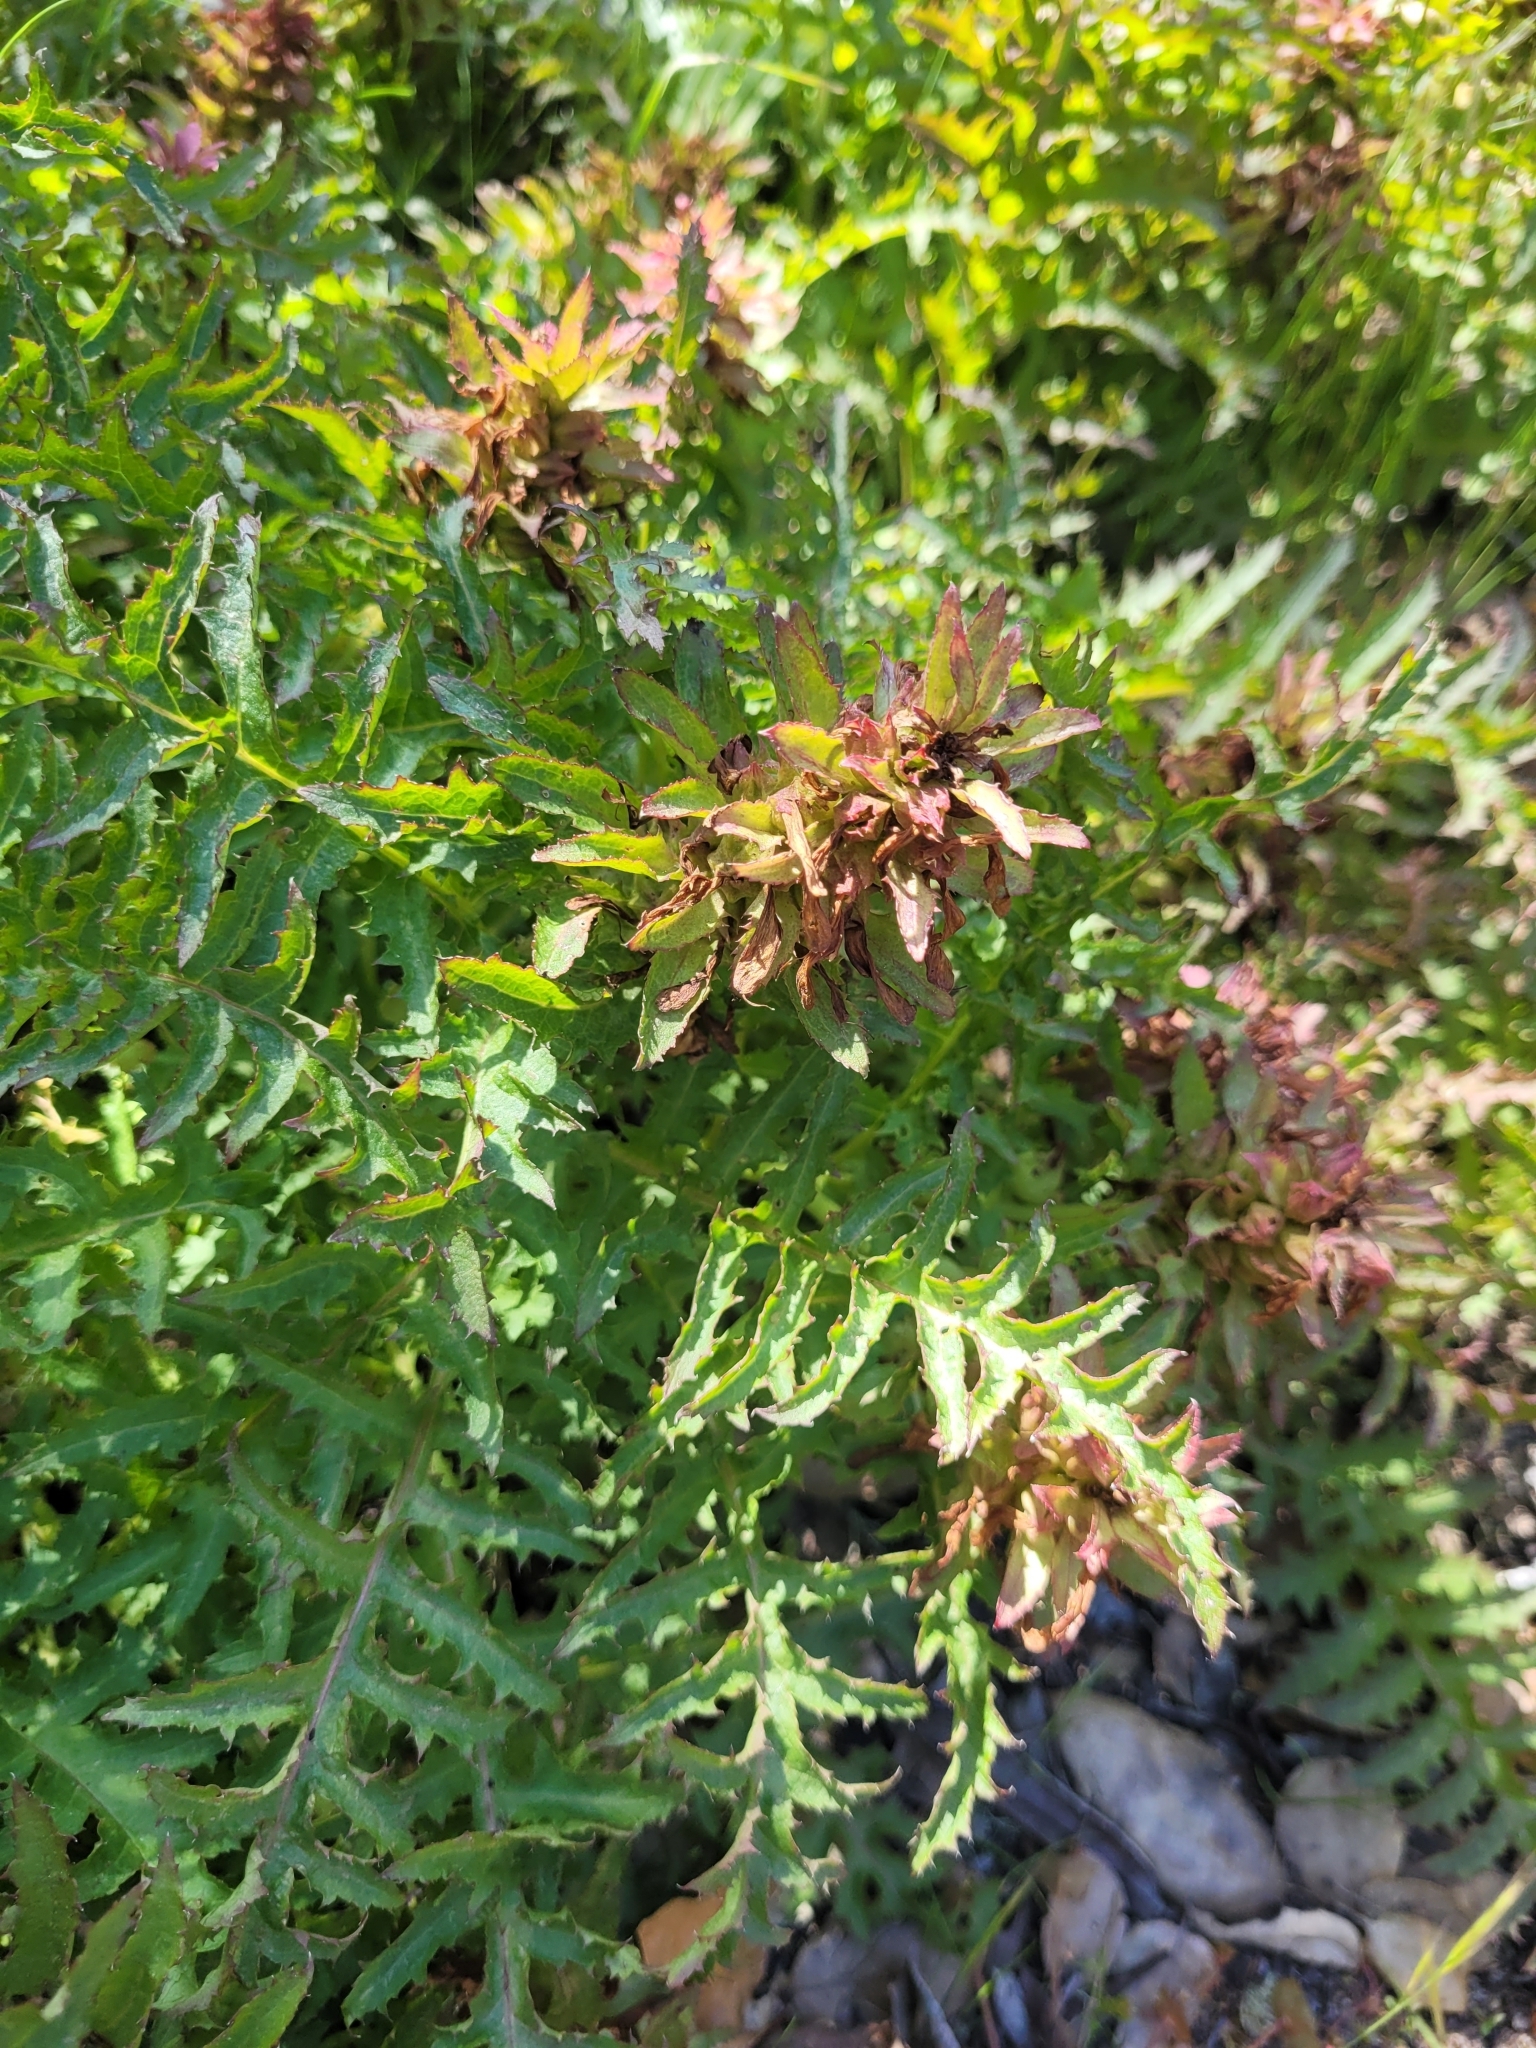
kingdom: Plantae
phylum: Tracheophyta
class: Magnoliopsida
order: Lamiales
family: Orobanchaceae
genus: Pedicularis
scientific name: Pedicularis densiflora
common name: Indian warrior
